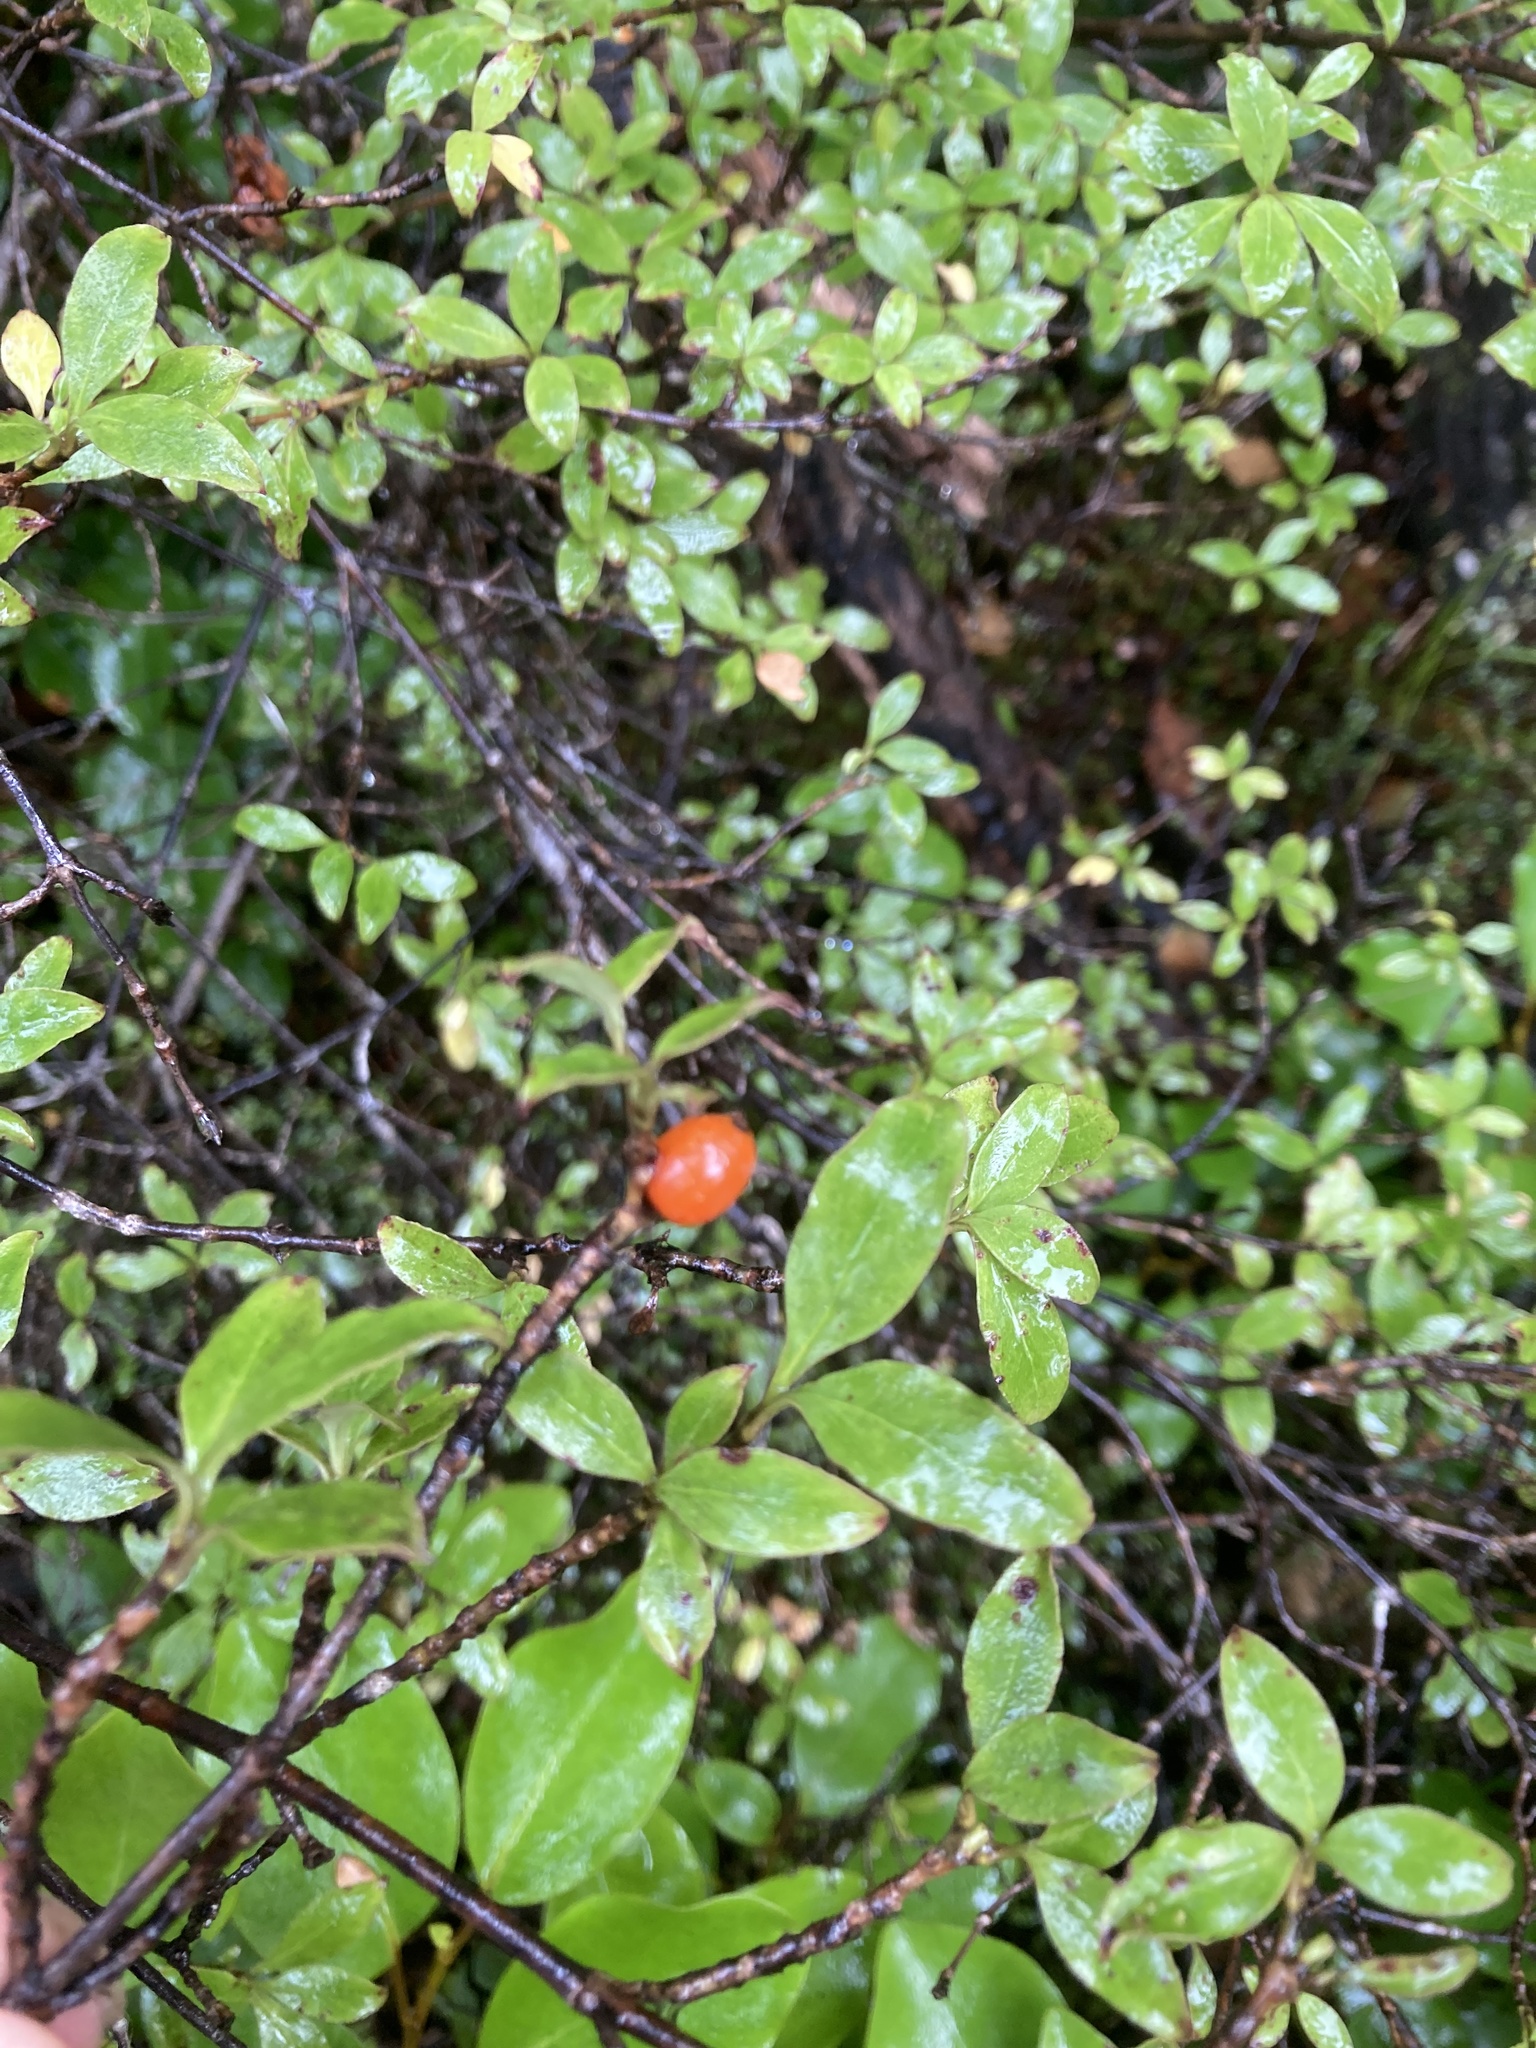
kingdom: Plantae
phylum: Tracheophyta
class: Magnoliopsida
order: Gentianales
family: Rubiaceae
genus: Coprosma
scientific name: Coprosma foetidissima
